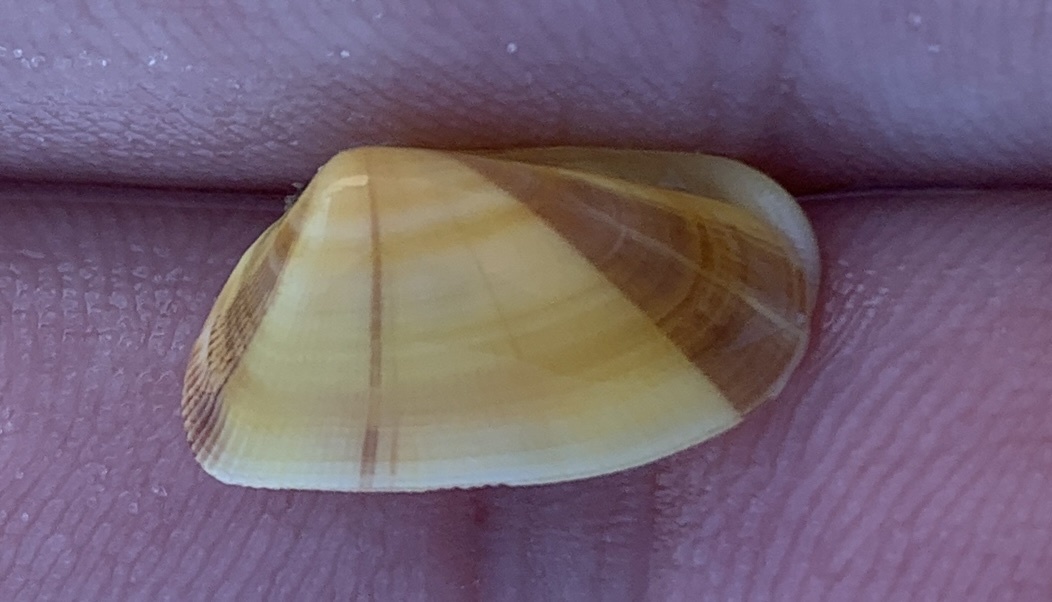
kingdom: Animalia
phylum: Mollusca
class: Bivalvia
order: Cardiida
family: Donacidae
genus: Donax
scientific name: Donax variabilis
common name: Butterfly shell
